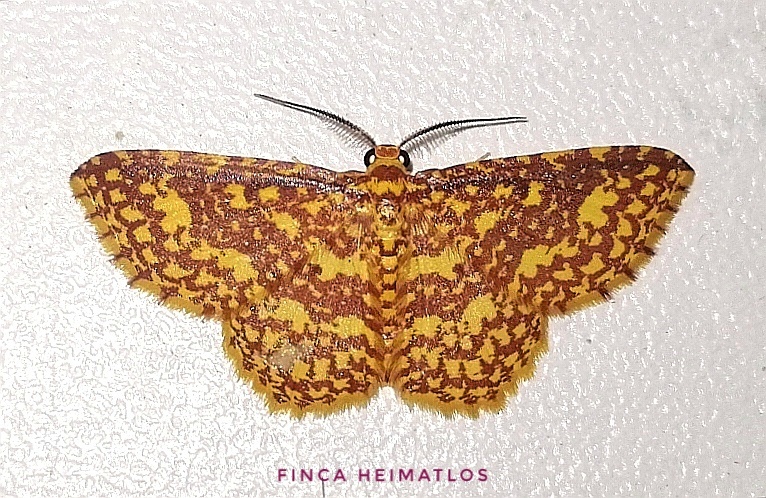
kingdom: Animalia
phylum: Arthropoda
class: Insecta
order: Lepidoptera
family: Geometridae
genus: Eois
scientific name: Eois cancellata
